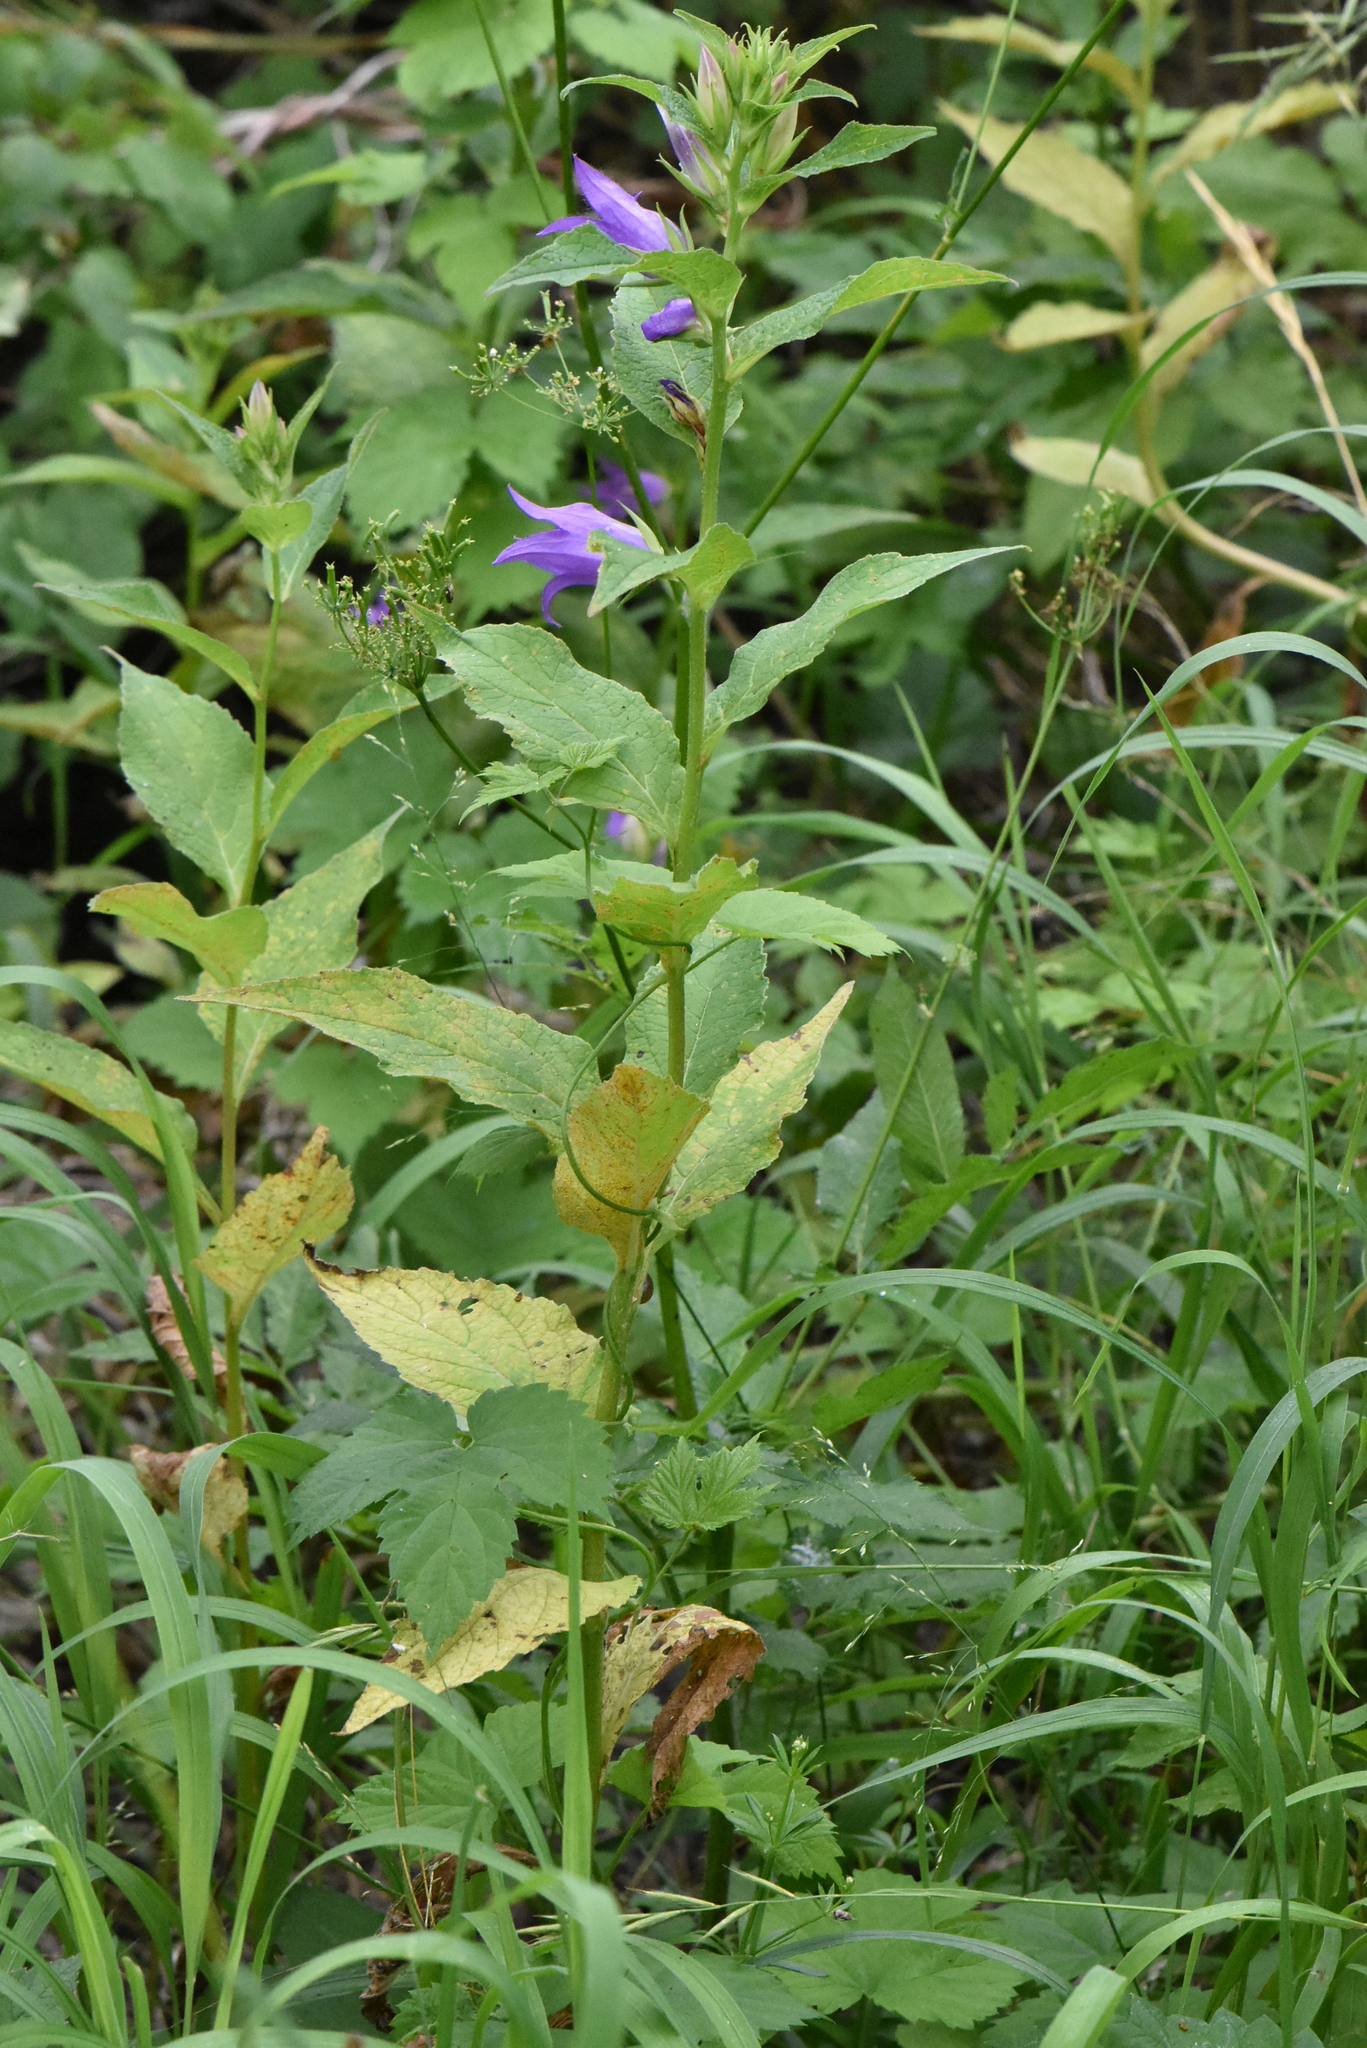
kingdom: Plantae
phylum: Tracheophyta
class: Magnoliopsida
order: Asterales
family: Campanulaceae
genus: Campanula
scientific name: Campanula latifolia
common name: Giant bellflower
